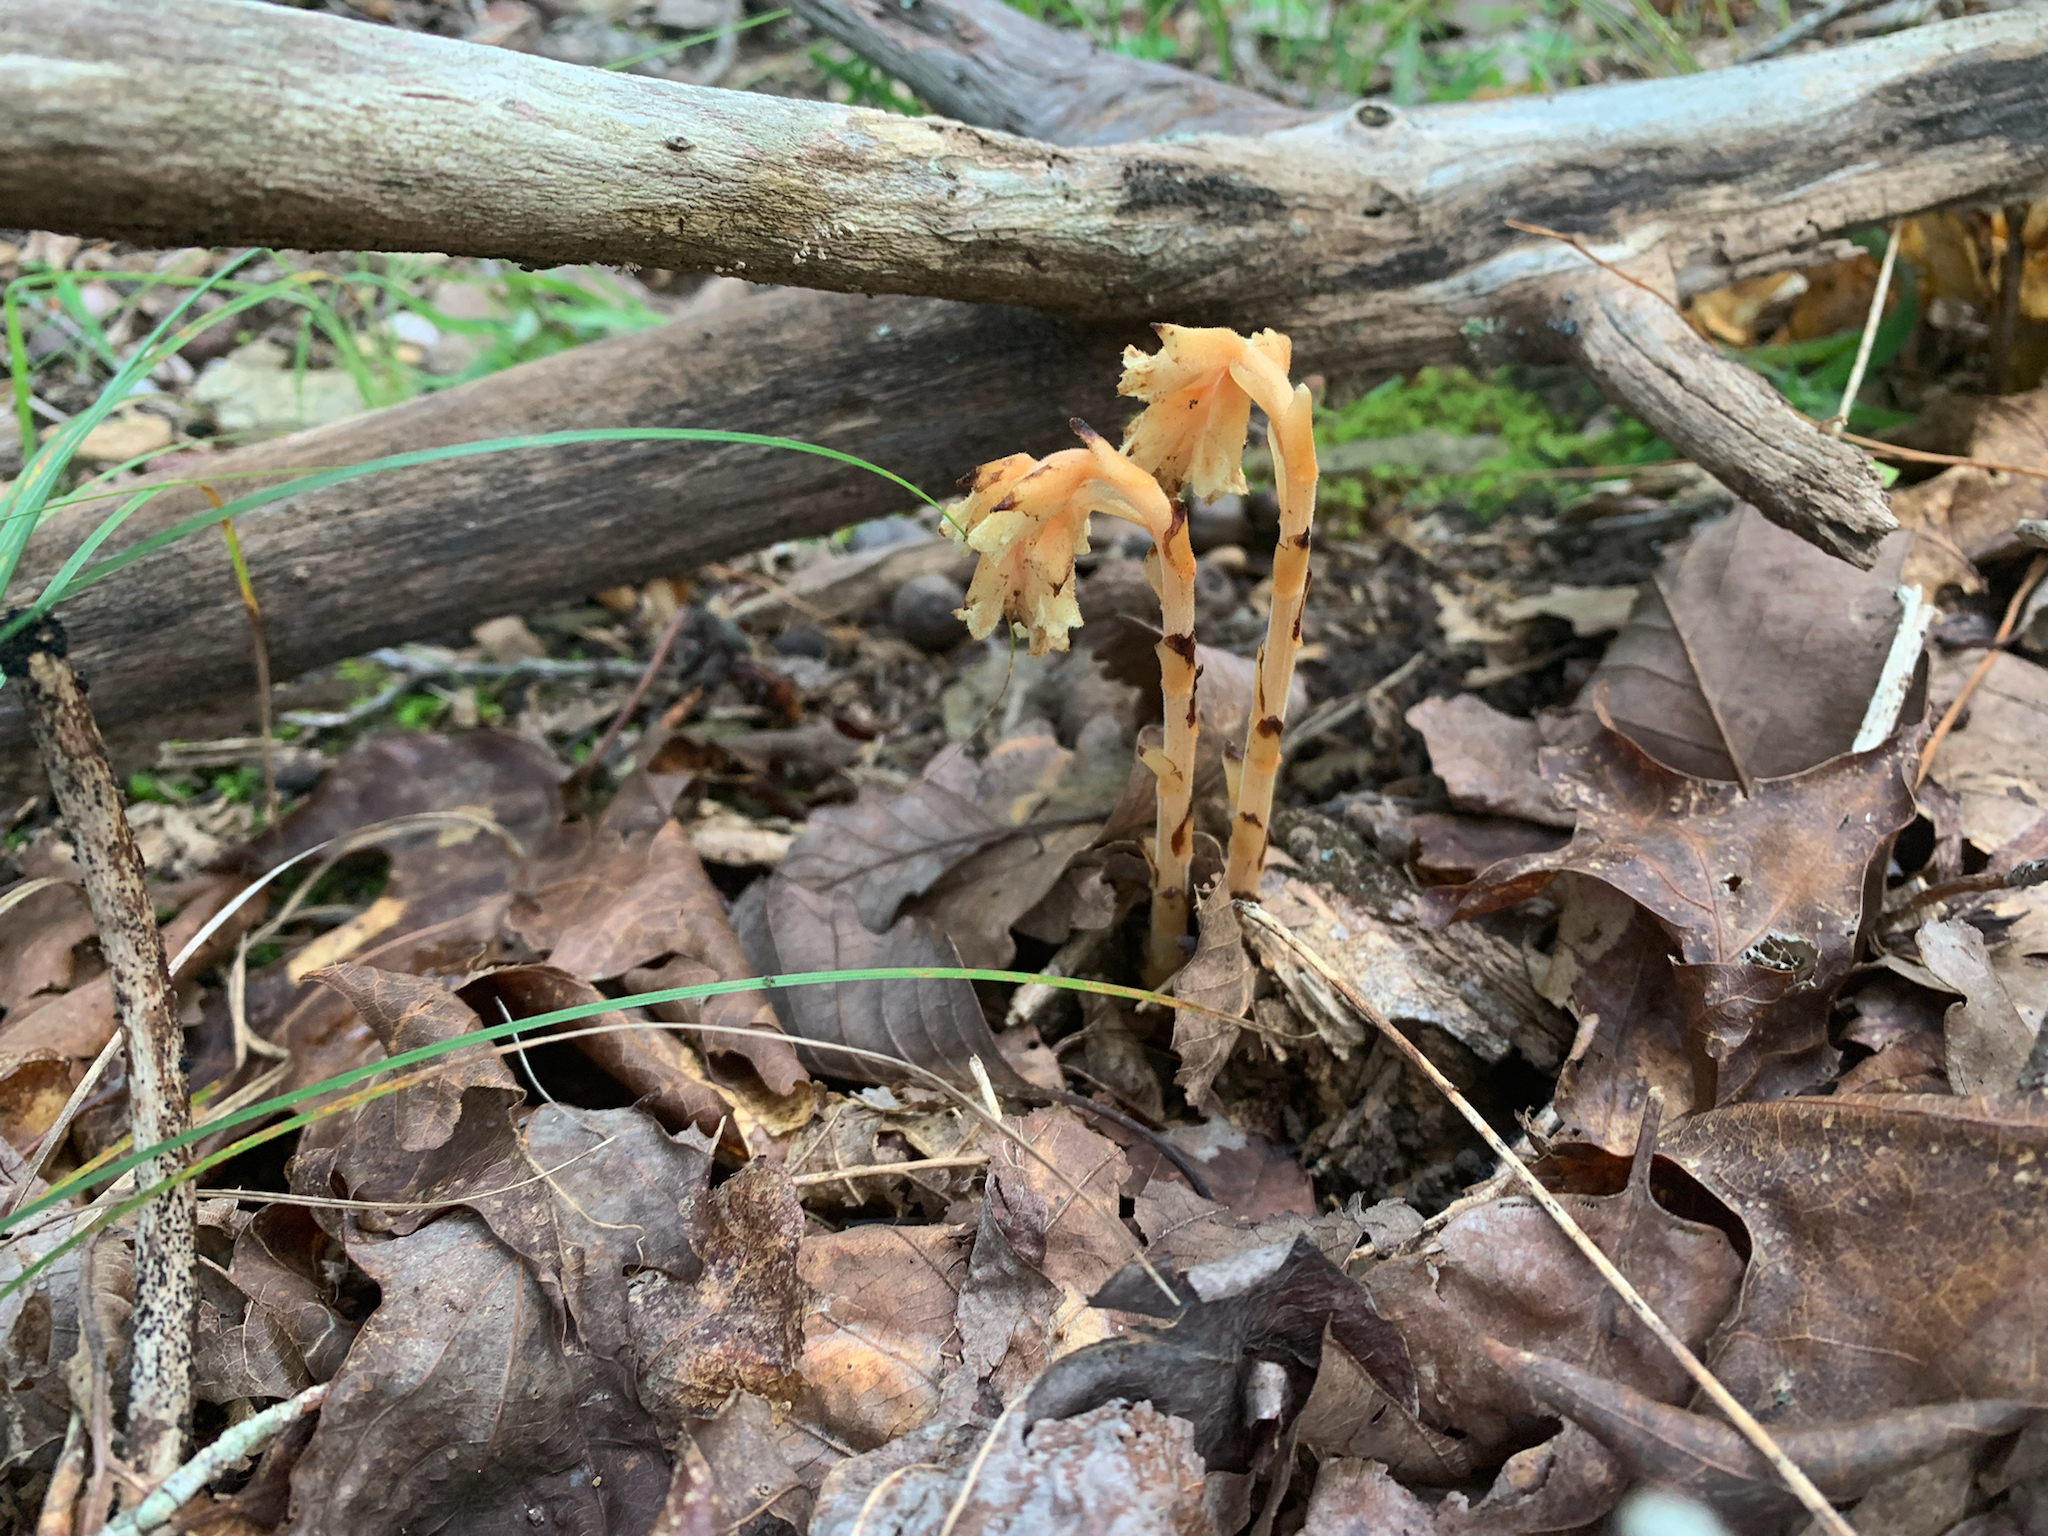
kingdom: Plantae
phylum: Tracheophyta
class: Magnoliopsida
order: Ericales
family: Ericaceae
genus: Hypopitys
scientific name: Hypopitys monotropa
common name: Yellow bird's-nest
